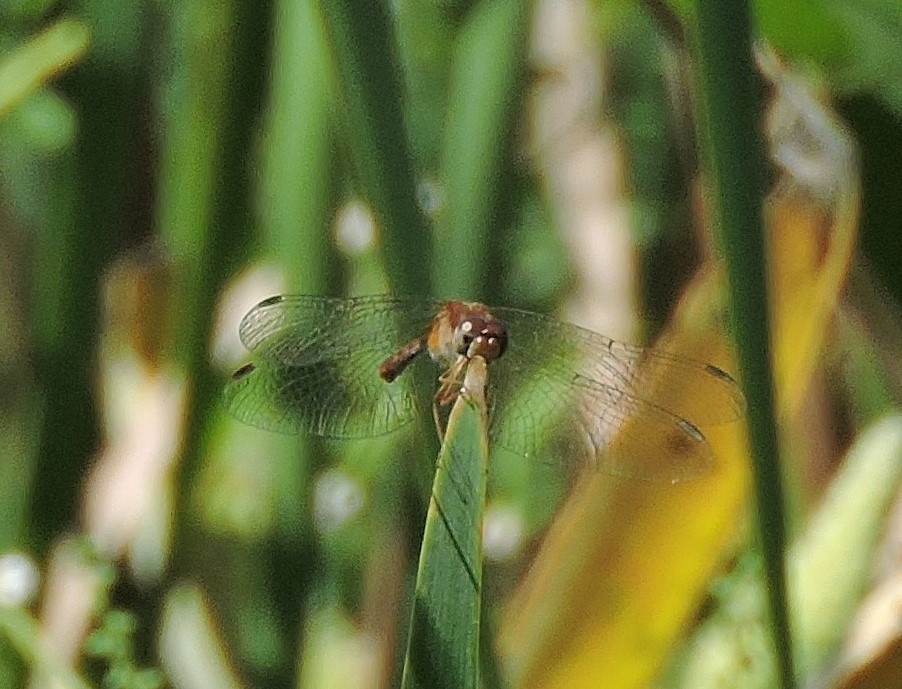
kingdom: Animalia
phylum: Arthropoda
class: Insecta
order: Odonata
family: Libellulidae
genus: Sympetrum
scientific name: Sympetrum vicinum
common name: Autumn meadowhawk
